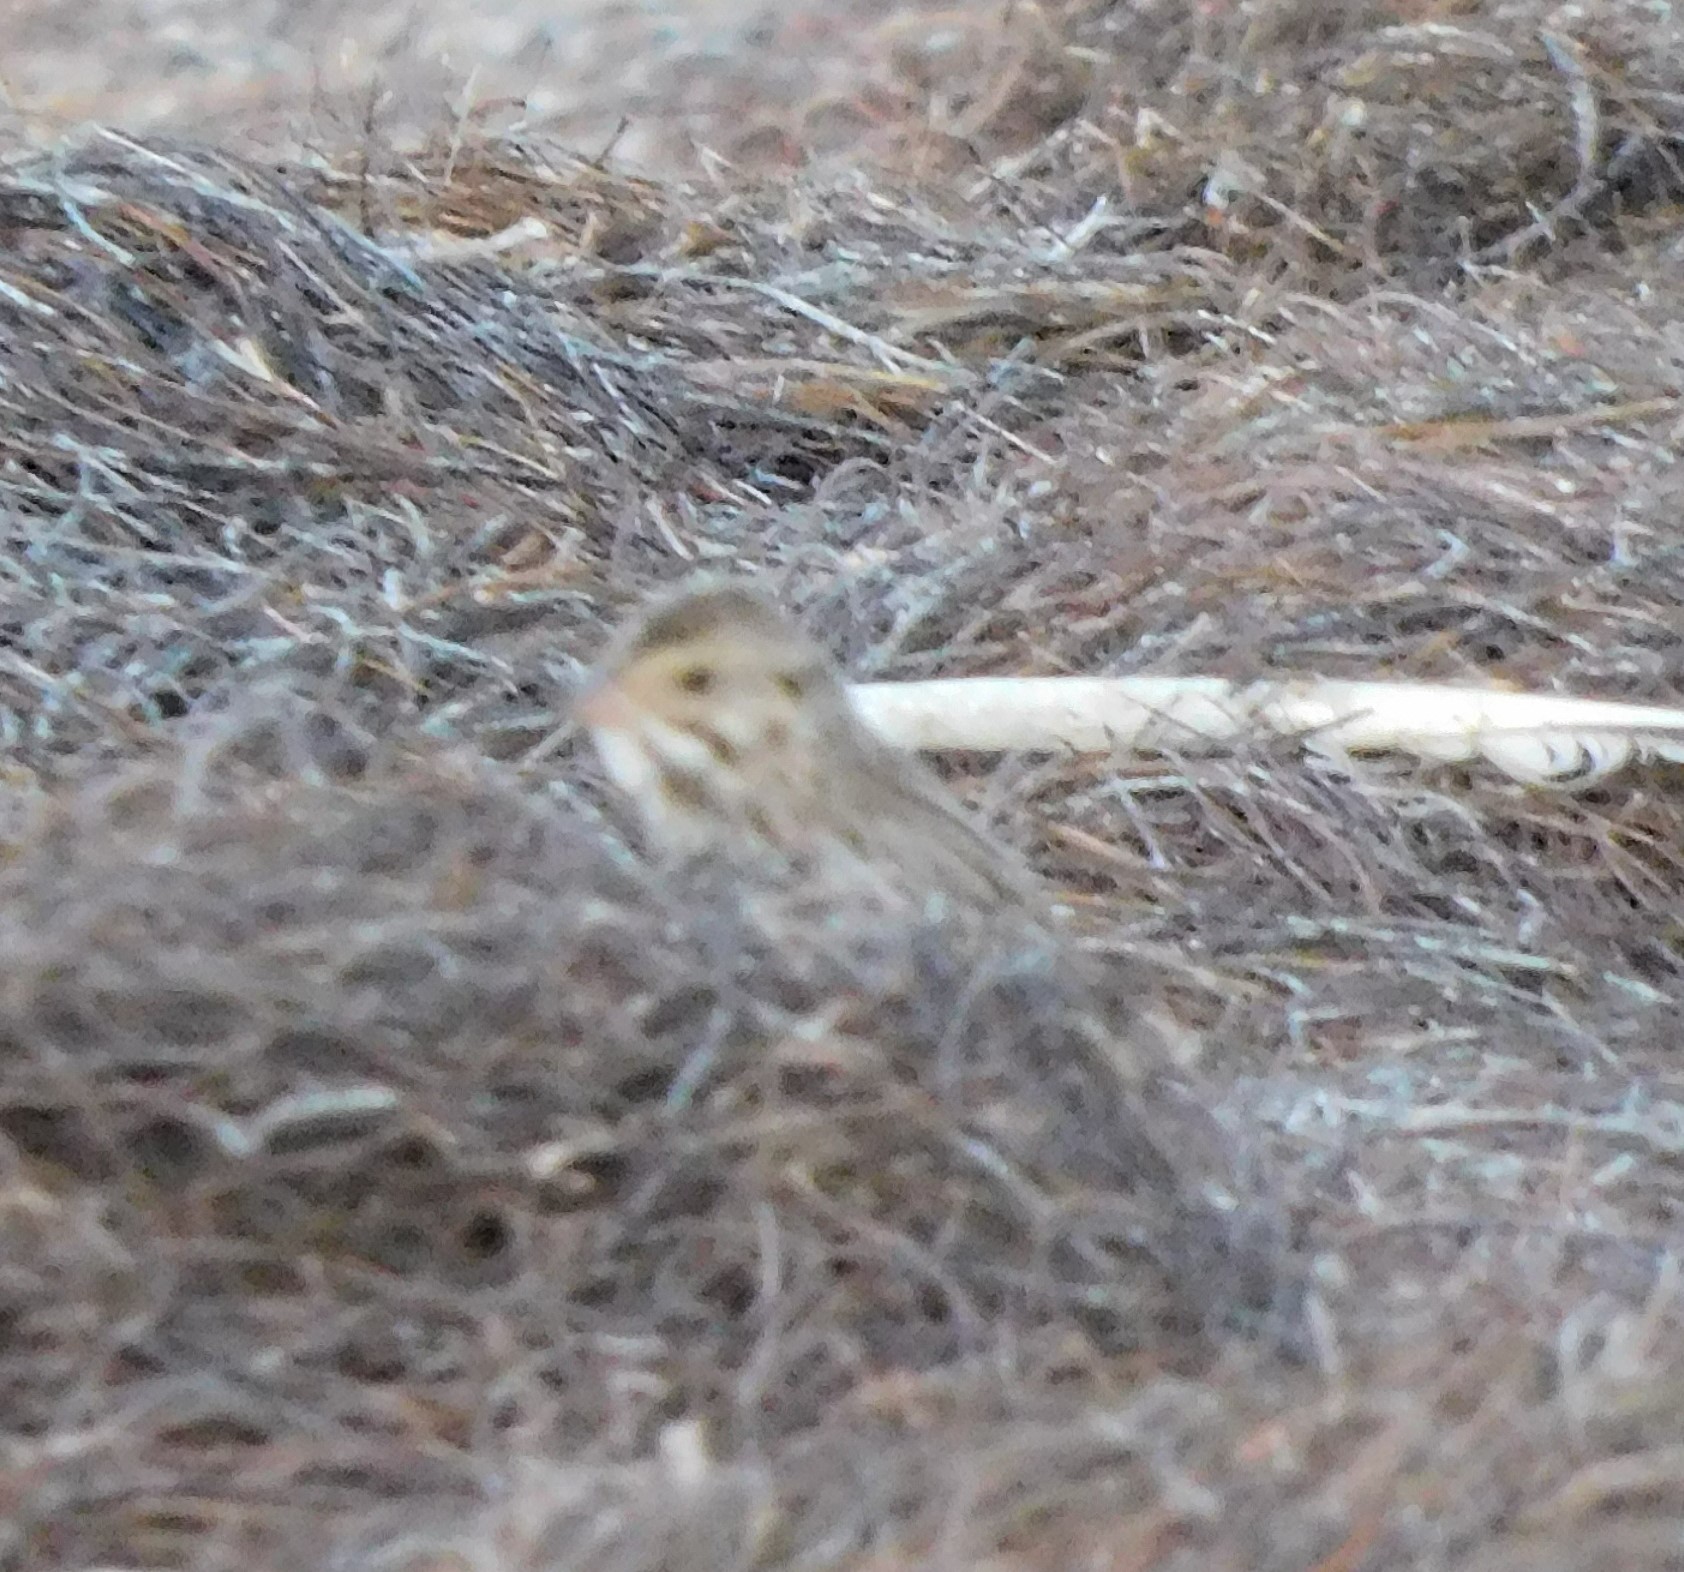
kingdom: Animalia
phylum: Chordata
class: Aves
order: Passeriformes
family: Passerellidae
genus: Passerculus
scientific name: Passerculus sandwichensis
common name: Savannah sparrow
